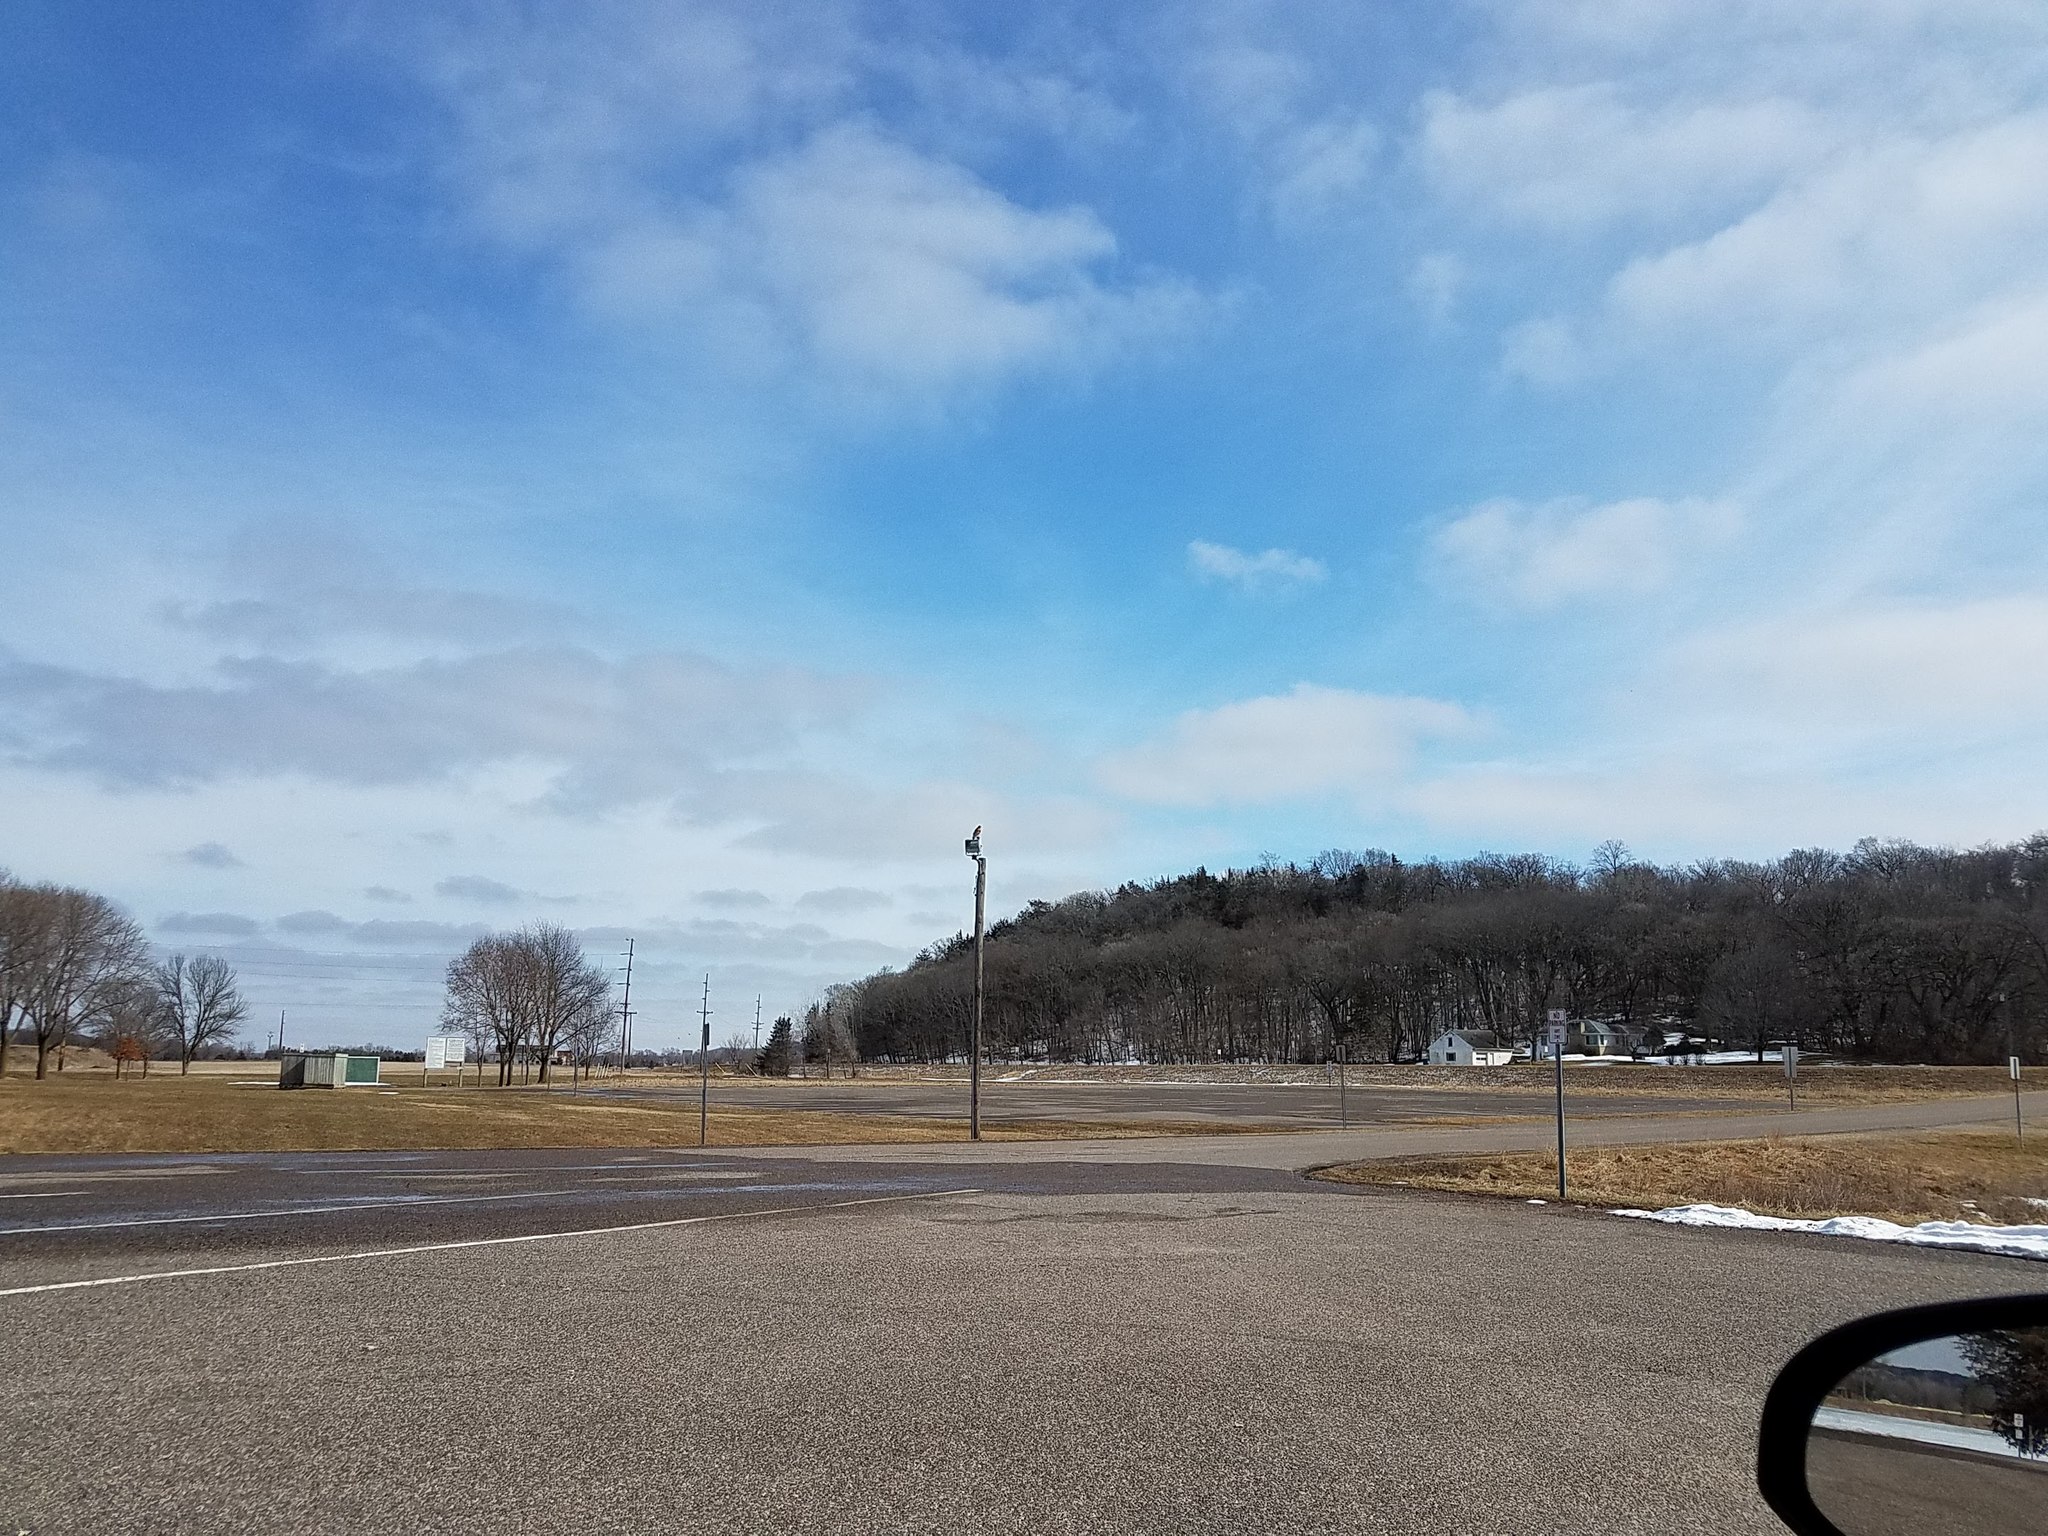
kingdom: Animalia
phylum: Chordata
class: Aves
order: Accipitriformes
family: Accipitridae
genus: Buteo
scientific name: Buteo lineatus
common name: Red-shouldered hawk
